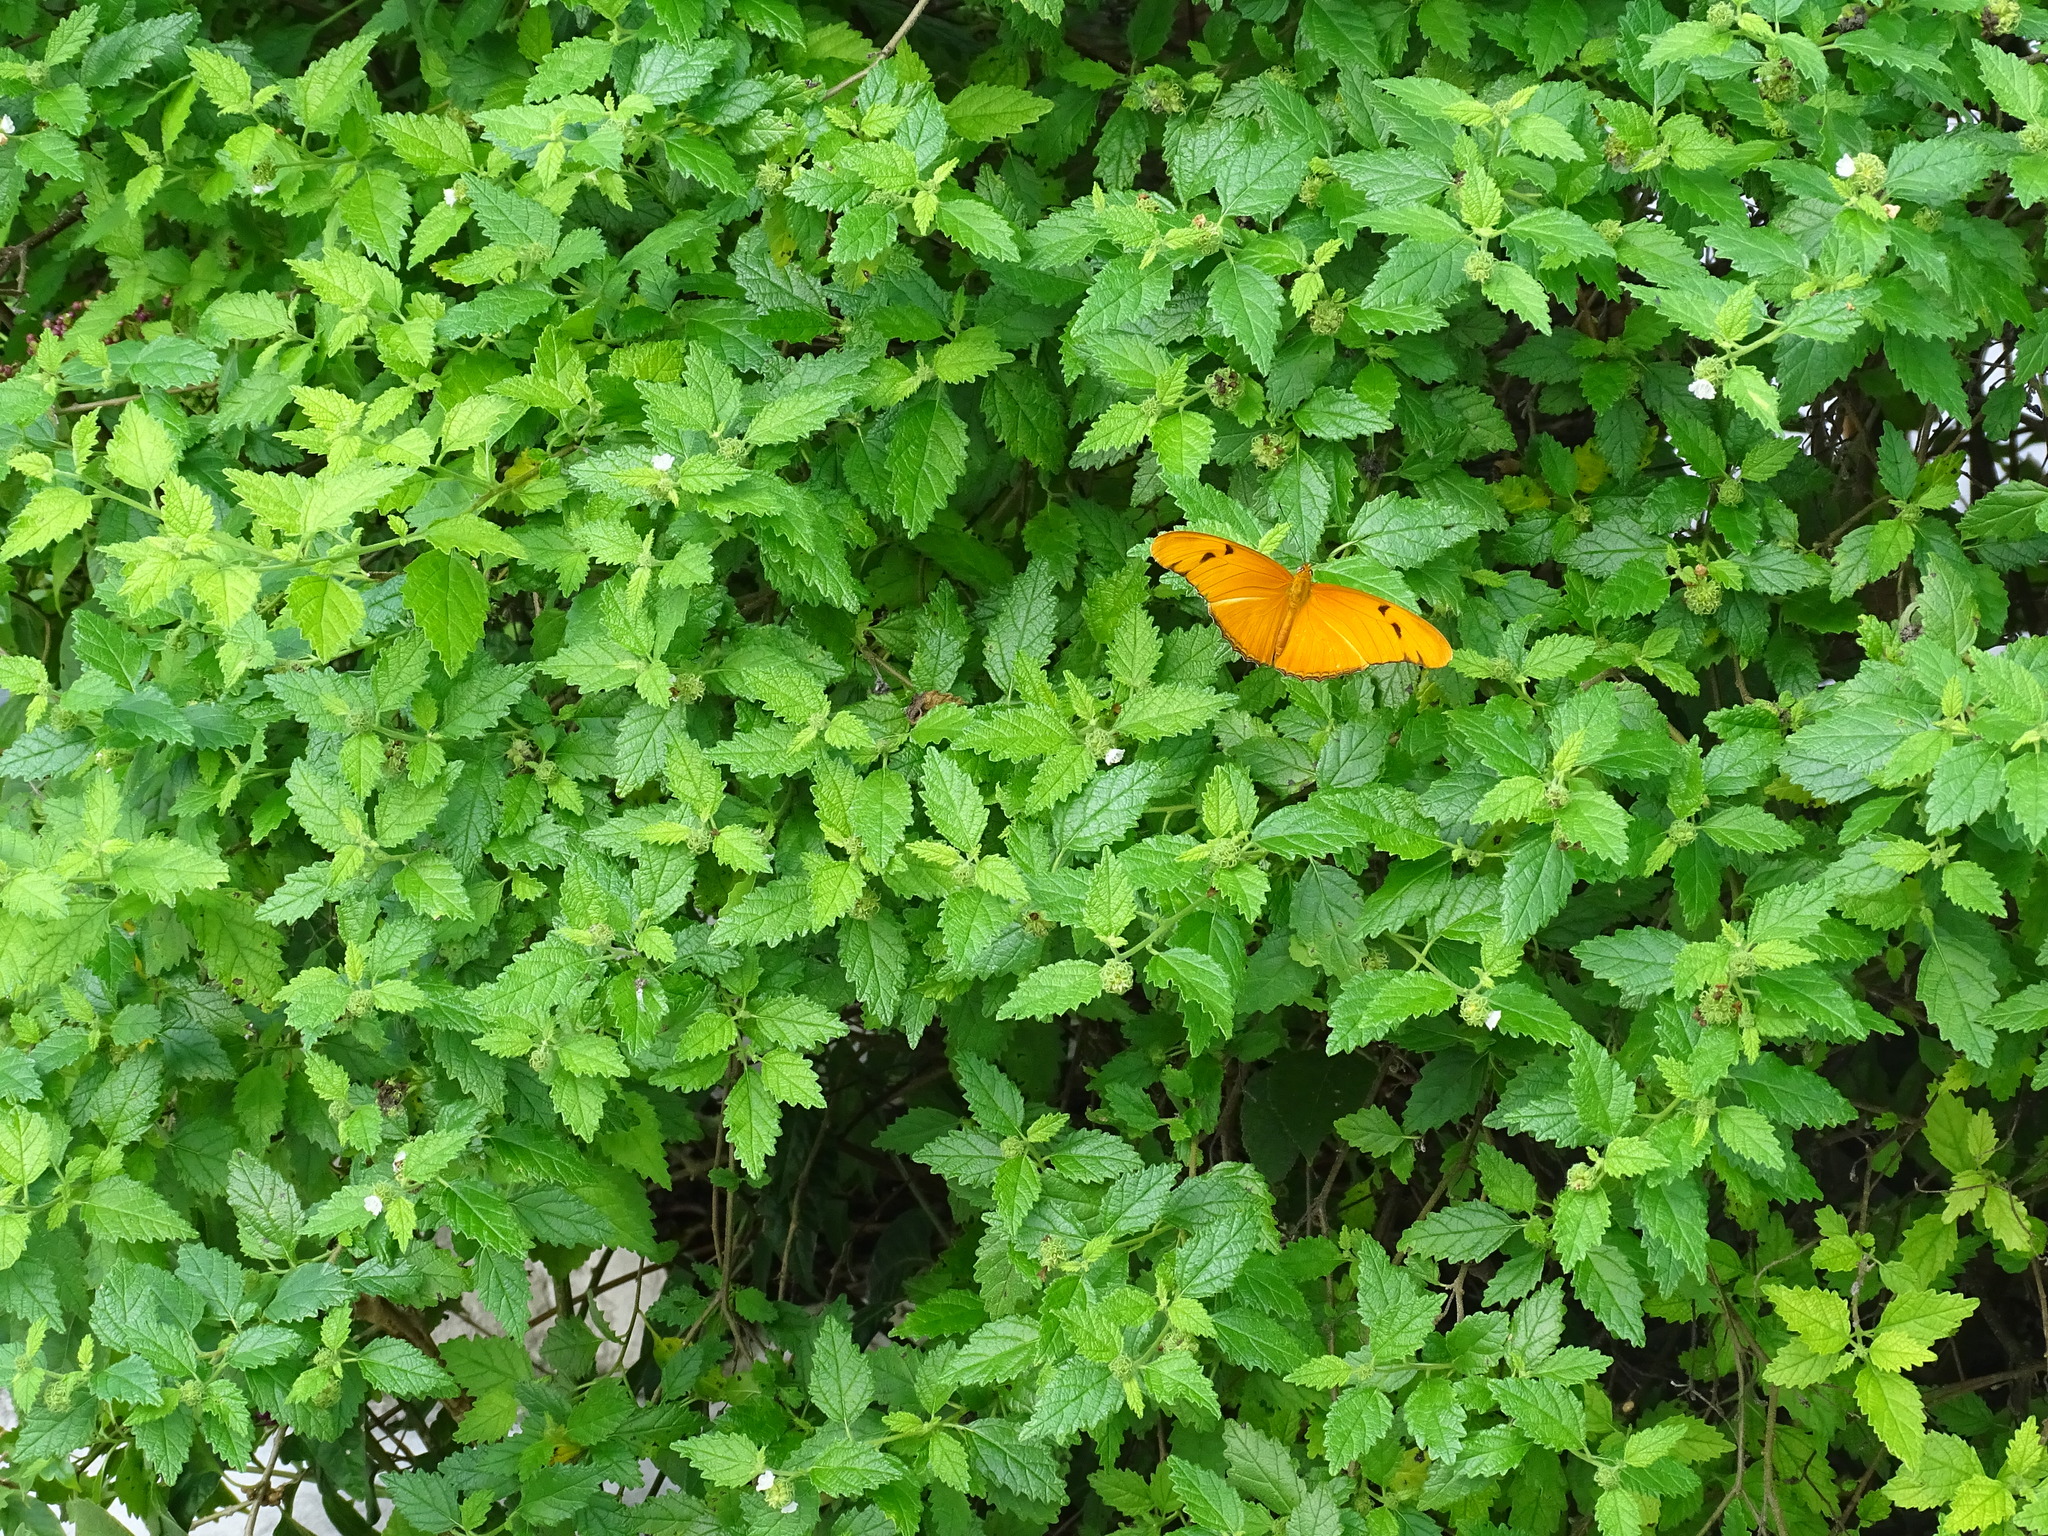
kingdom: Animalia
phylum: Arthropoda
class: Insecta
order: Lepidoptera
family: Nymphalidae
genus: Dryas
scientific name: Dryas iulia
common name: Flambeau
